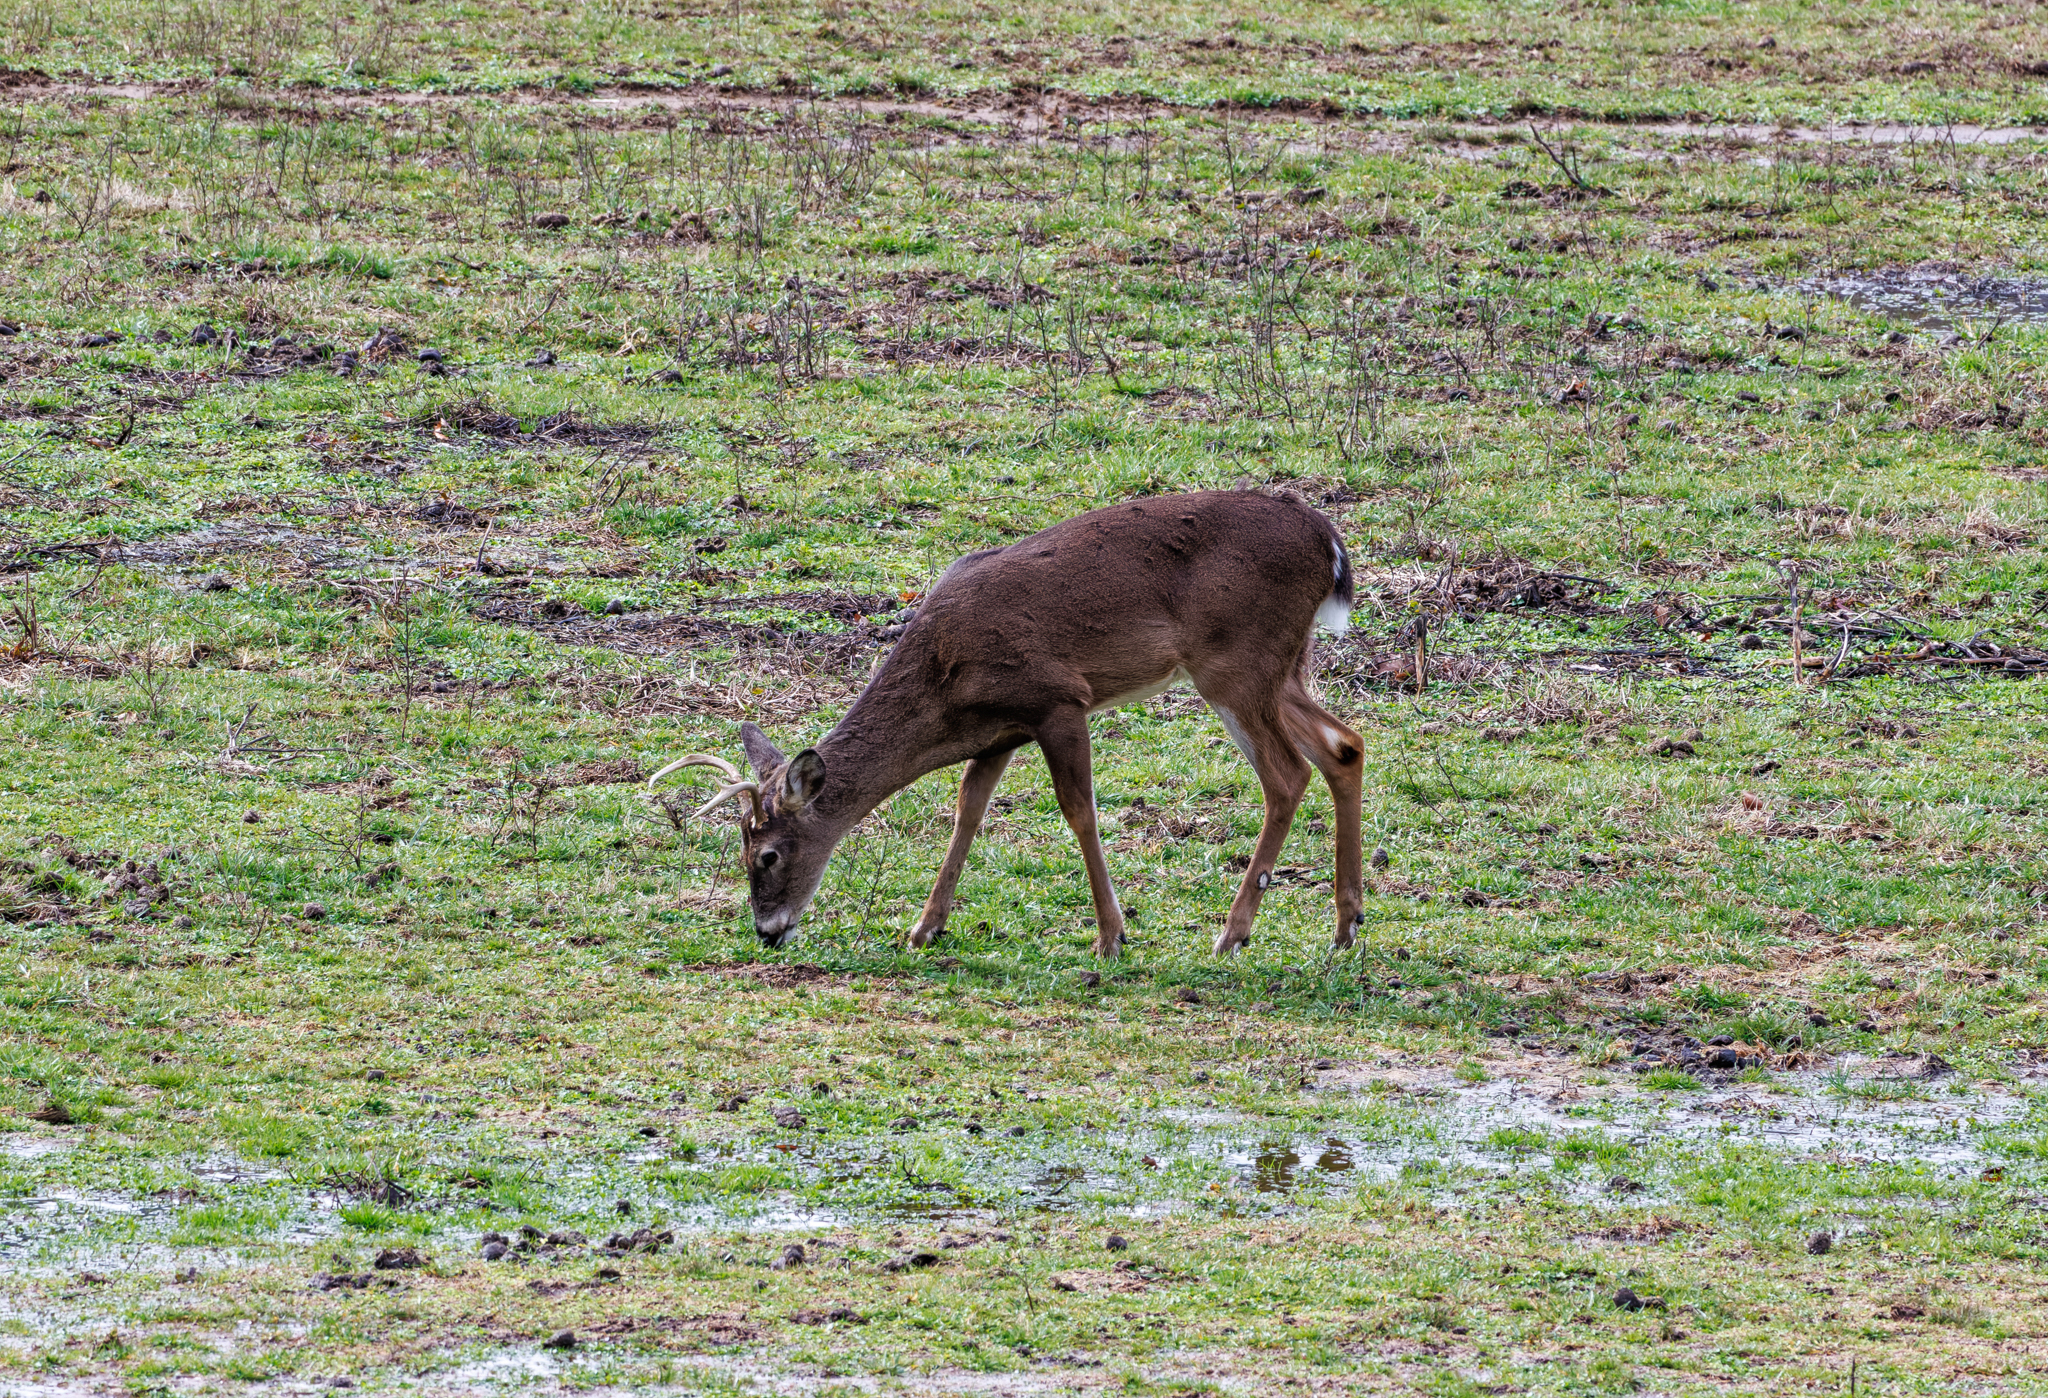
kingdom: Animalia
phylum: Chordata
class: Mammalia
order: Artiodactyla
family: Cervidae
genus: Odocoileus
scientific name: Odocoileus virginianus
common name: White-tailed deer
